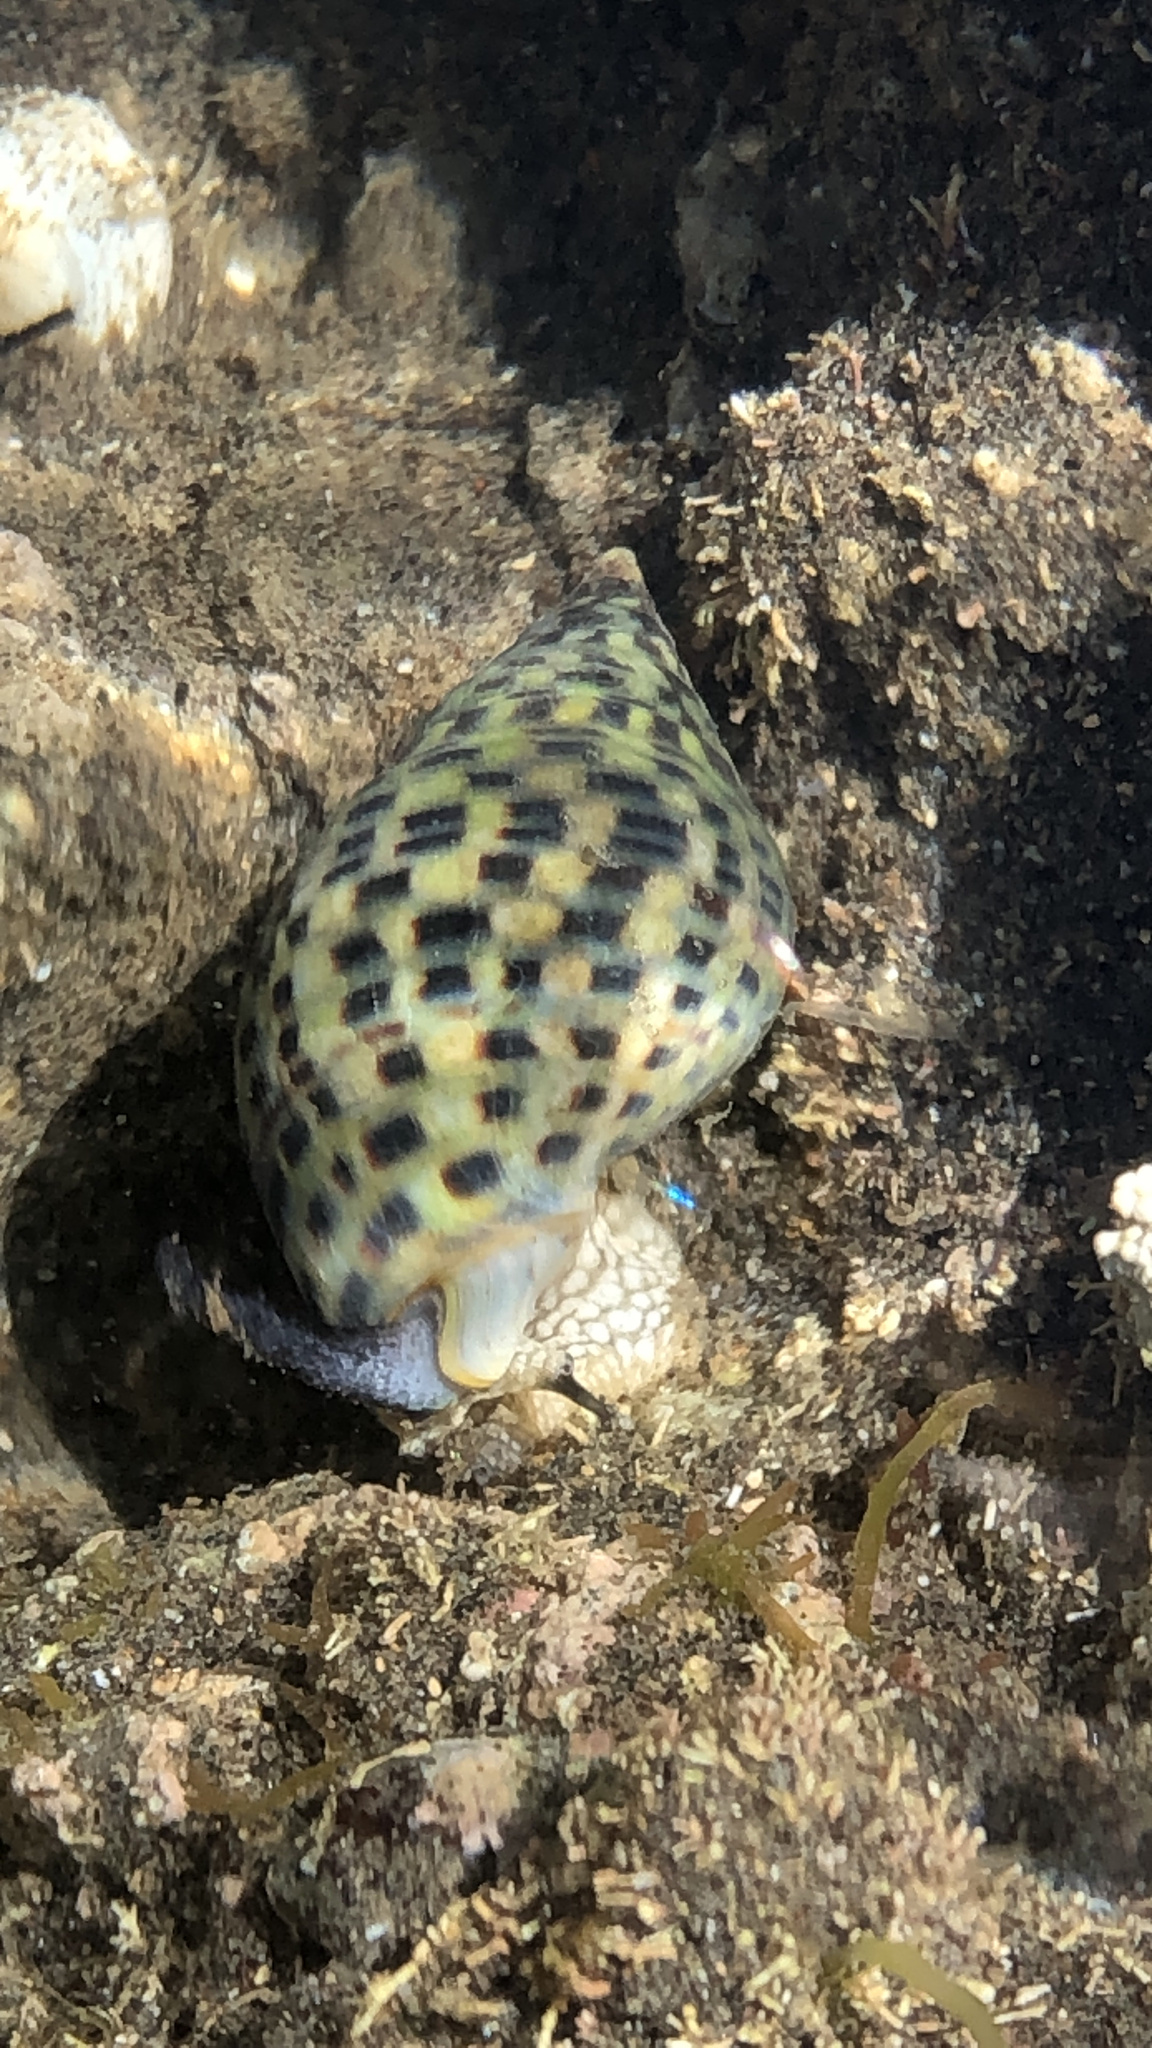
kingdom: Animalia
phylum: Mollusca
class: Gastropoda
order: Neogastropoda
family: Cominellidae
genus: Cominella
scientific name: Cominella maculosa
